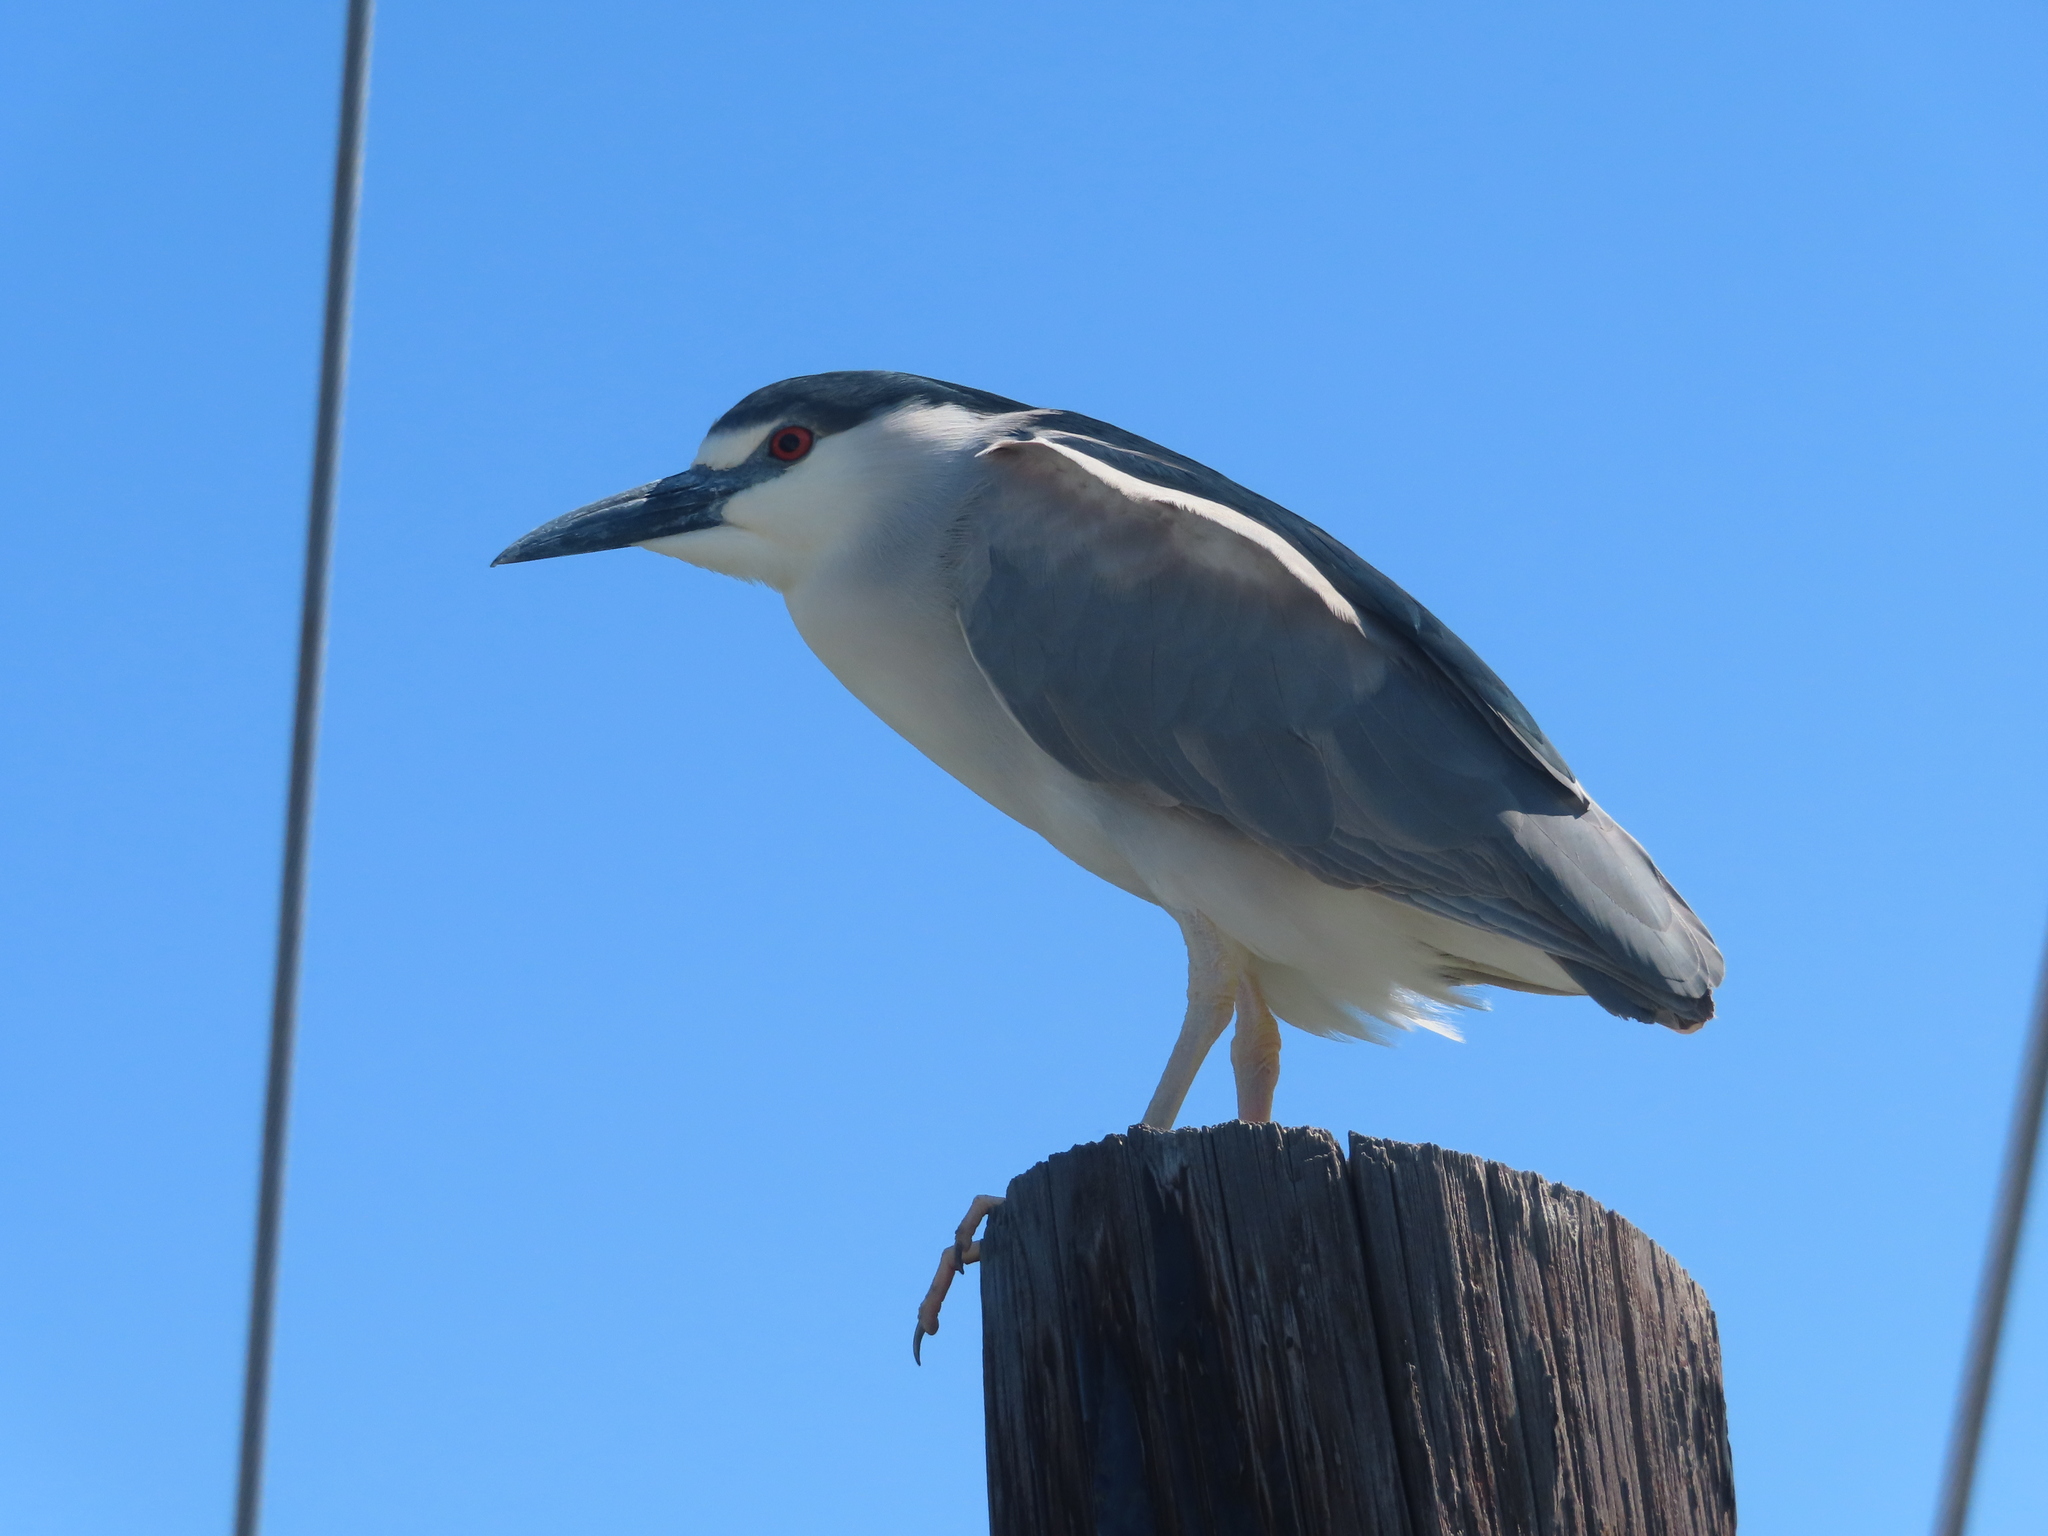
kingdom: Animalia
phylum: Chordata
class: Aves
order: Pelecaniformes
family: Ardeidae
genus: Nycticorax
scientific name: Nycticorax nycticorax
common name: Black-crowned night heron
